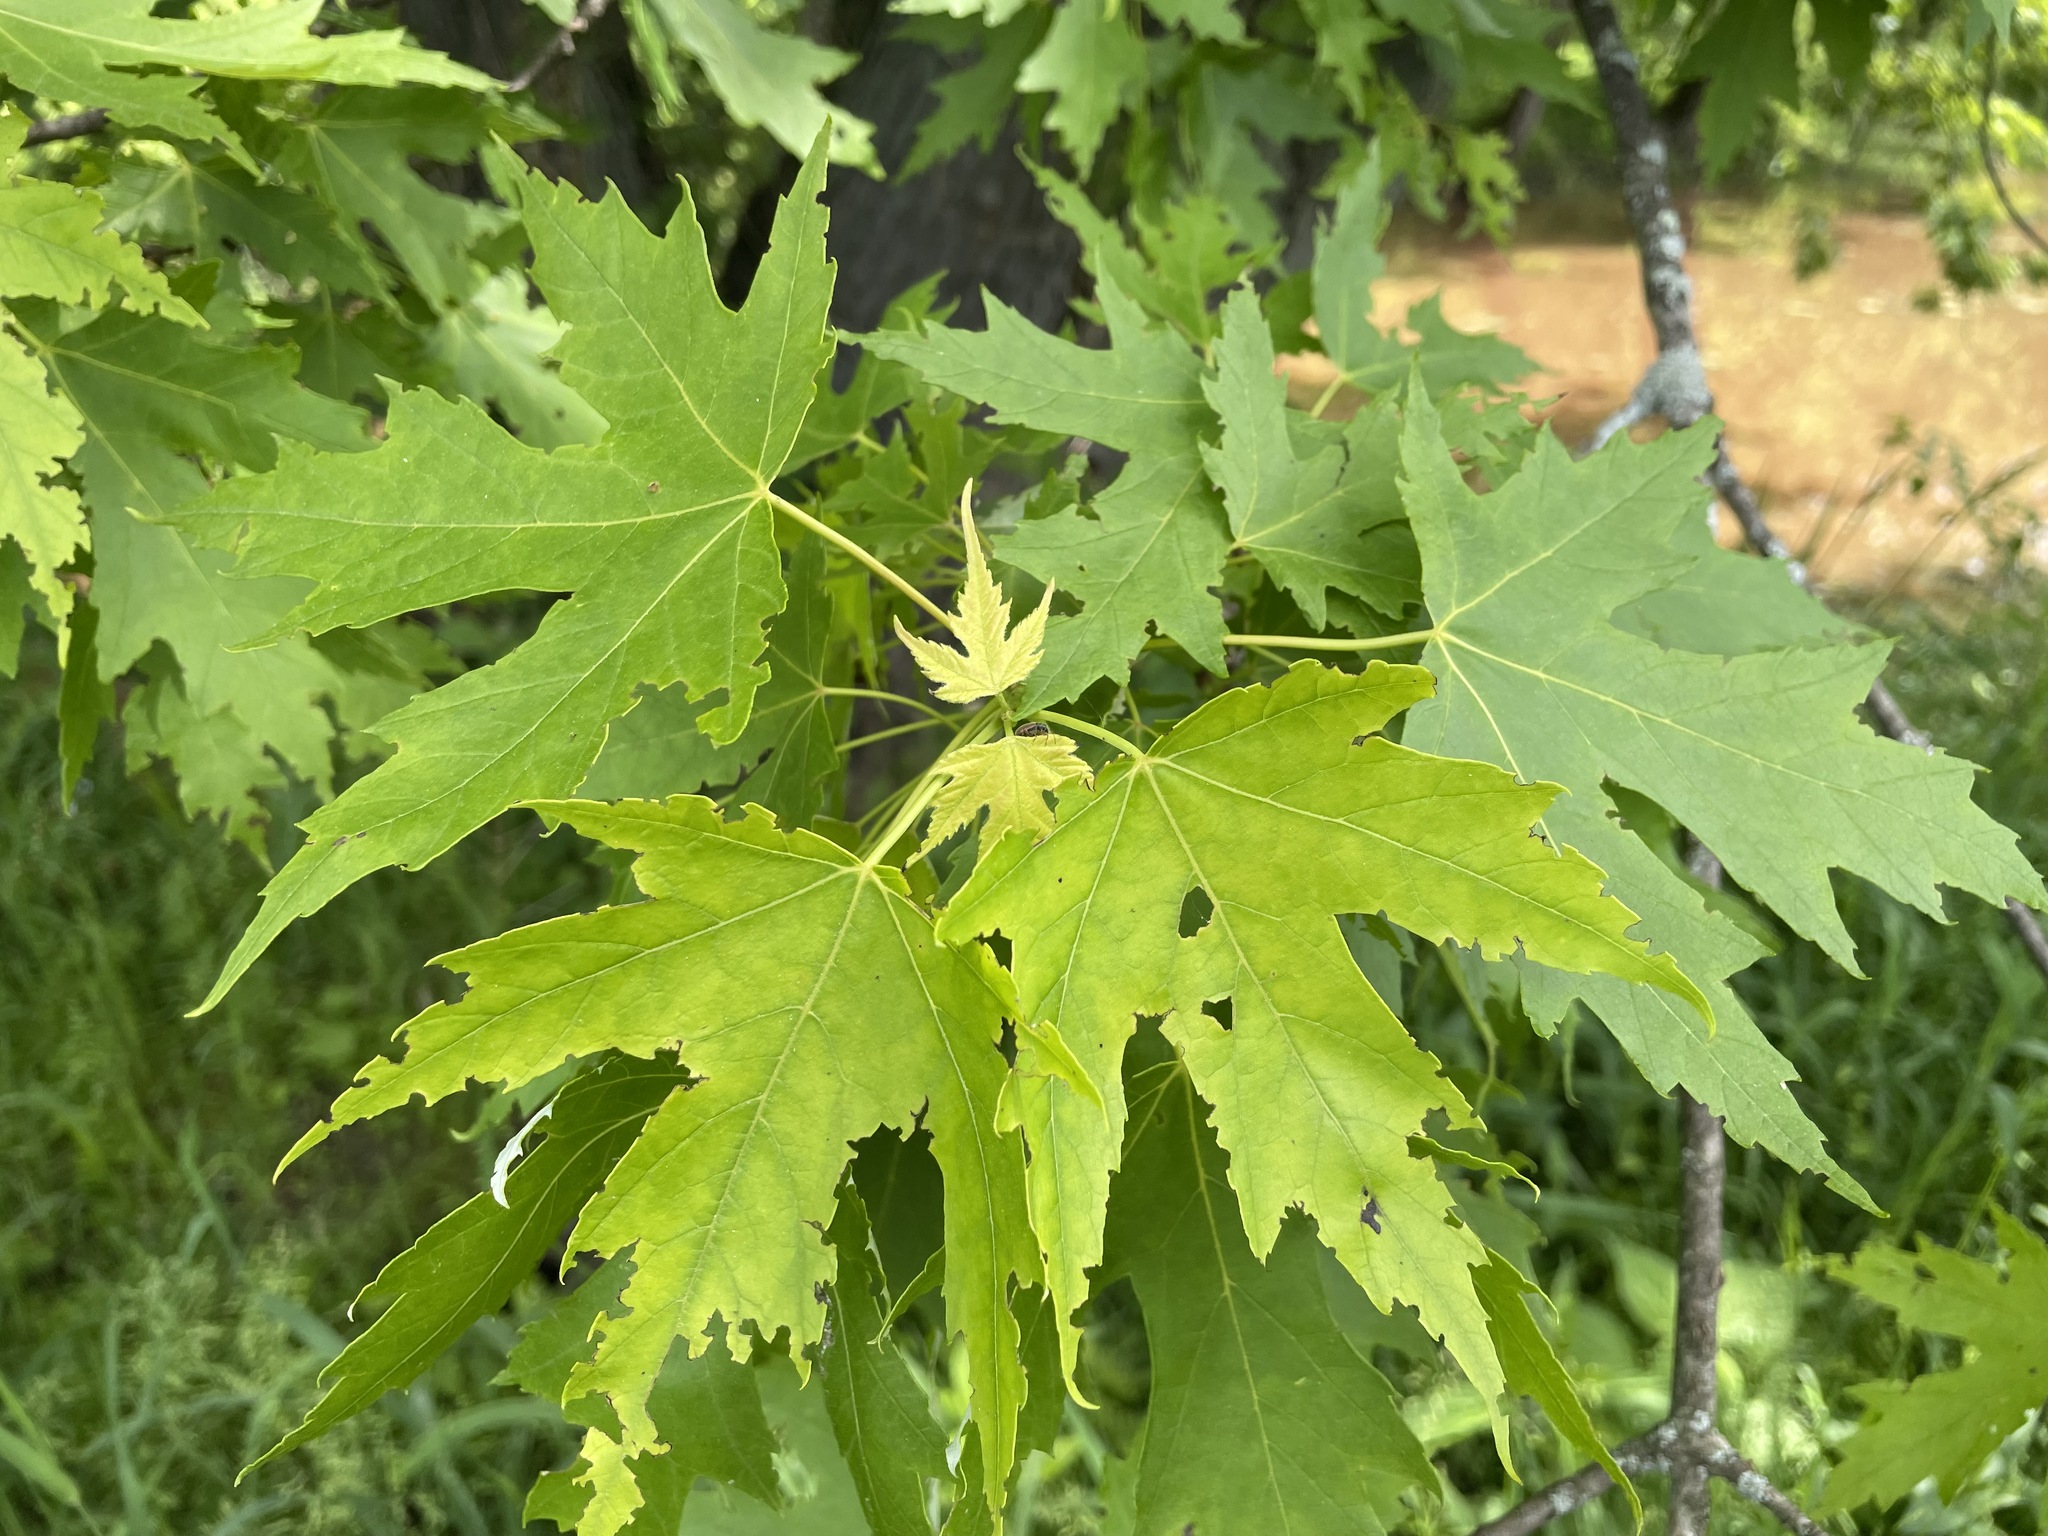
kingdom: Plantae
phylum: Tracheophyta
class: Magnoliopsida
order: Sapindales
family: Sapindaceae
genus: Acer
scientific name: Acer saccharinum
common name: Silver maple
